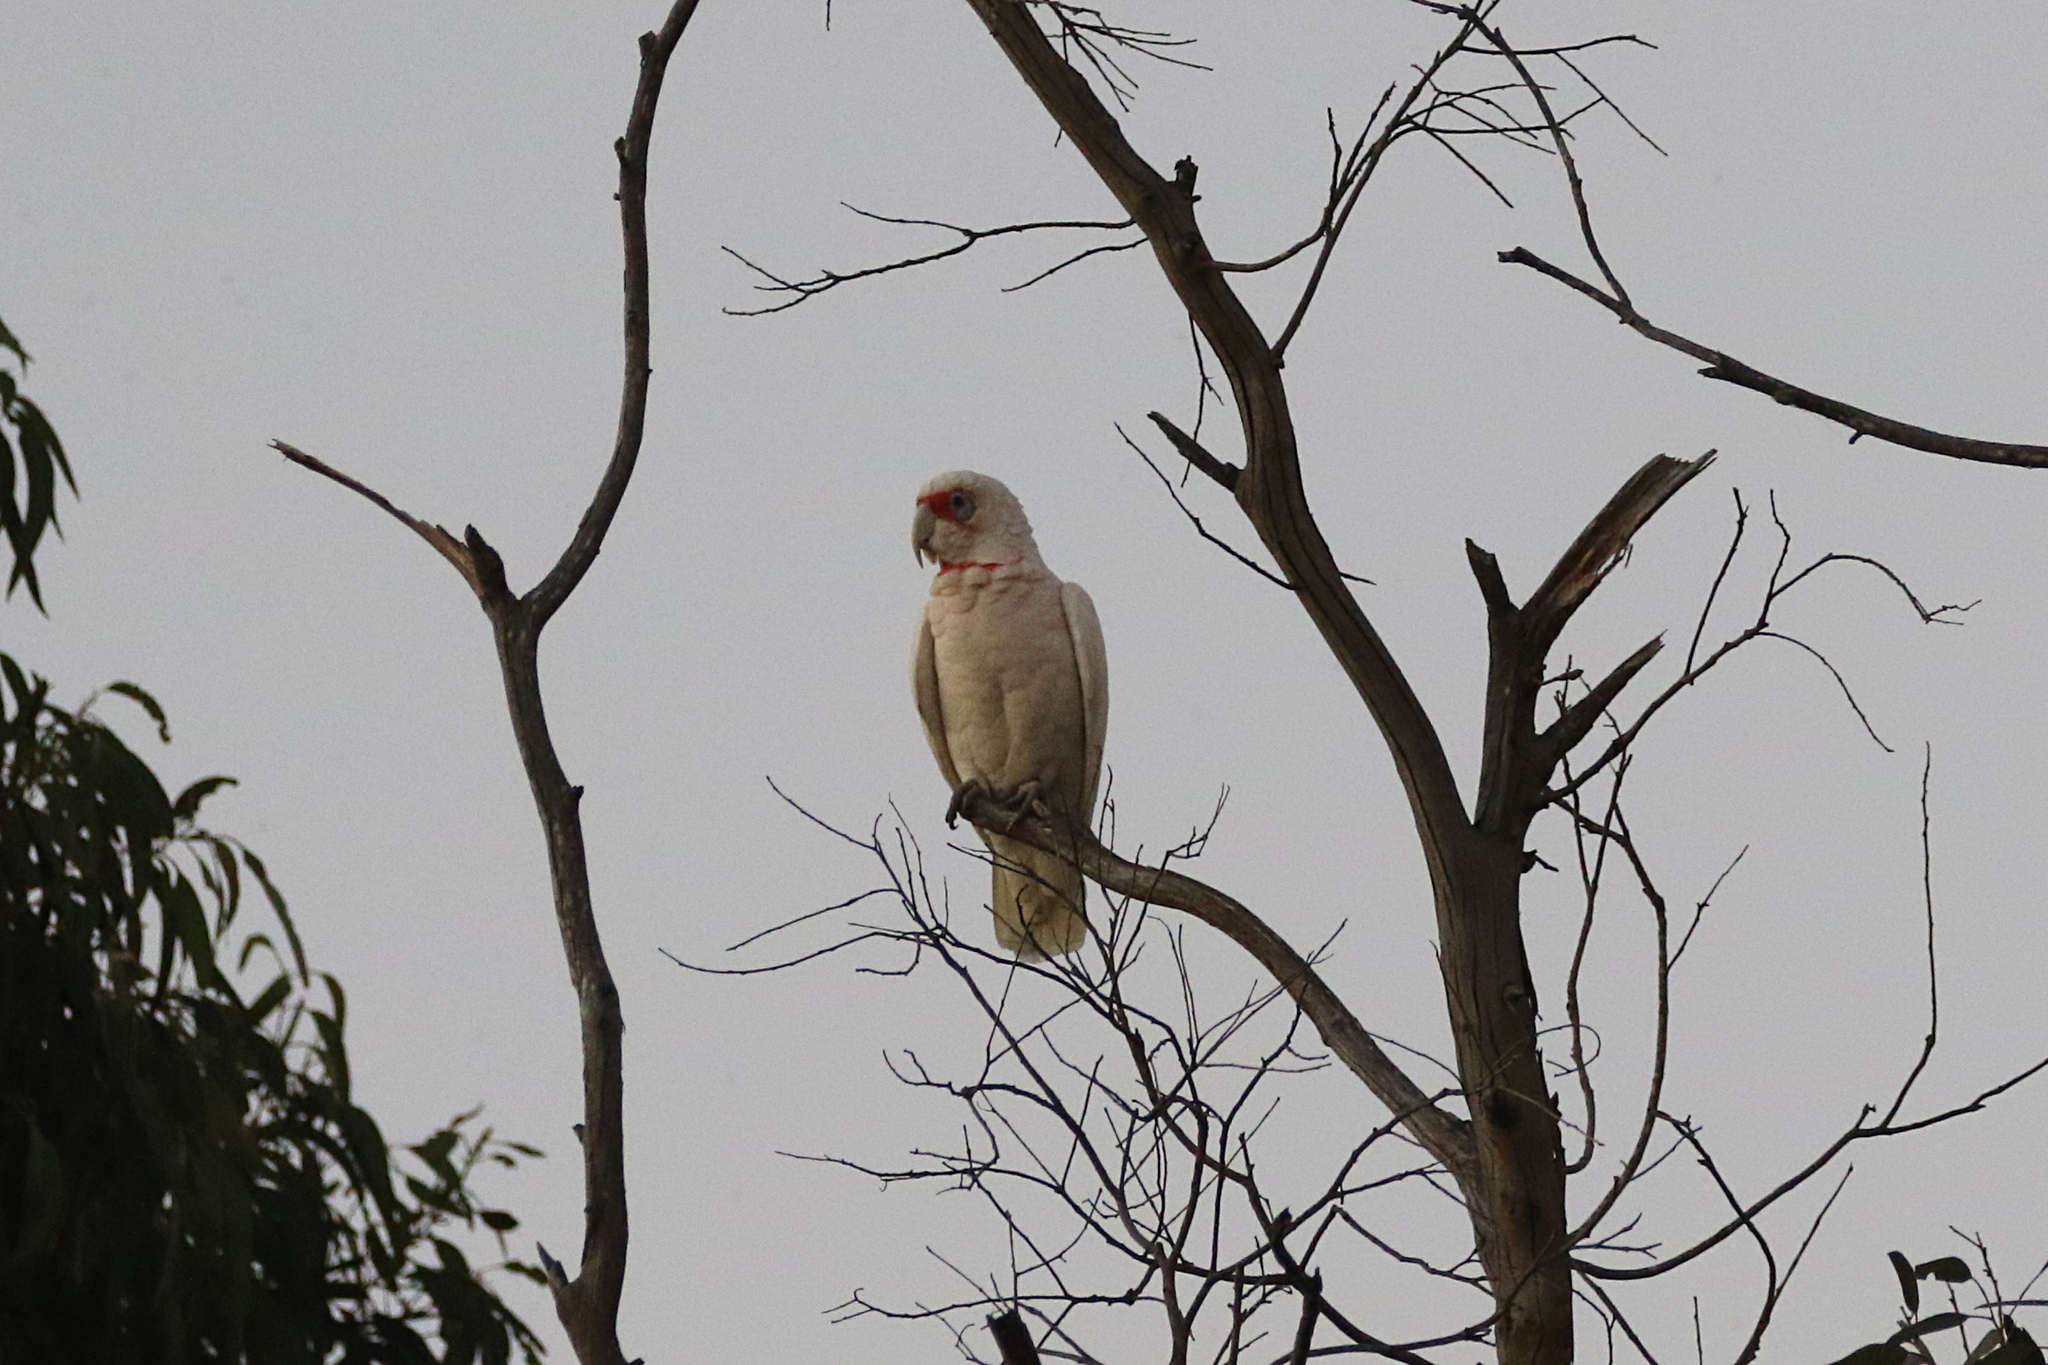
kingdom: Animalia
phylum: Chordata
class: Aves
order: Psittaciformes
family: Psittacidae
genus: Cacatua
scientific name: Cacatua tenuirostris
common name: Long-billed corella
